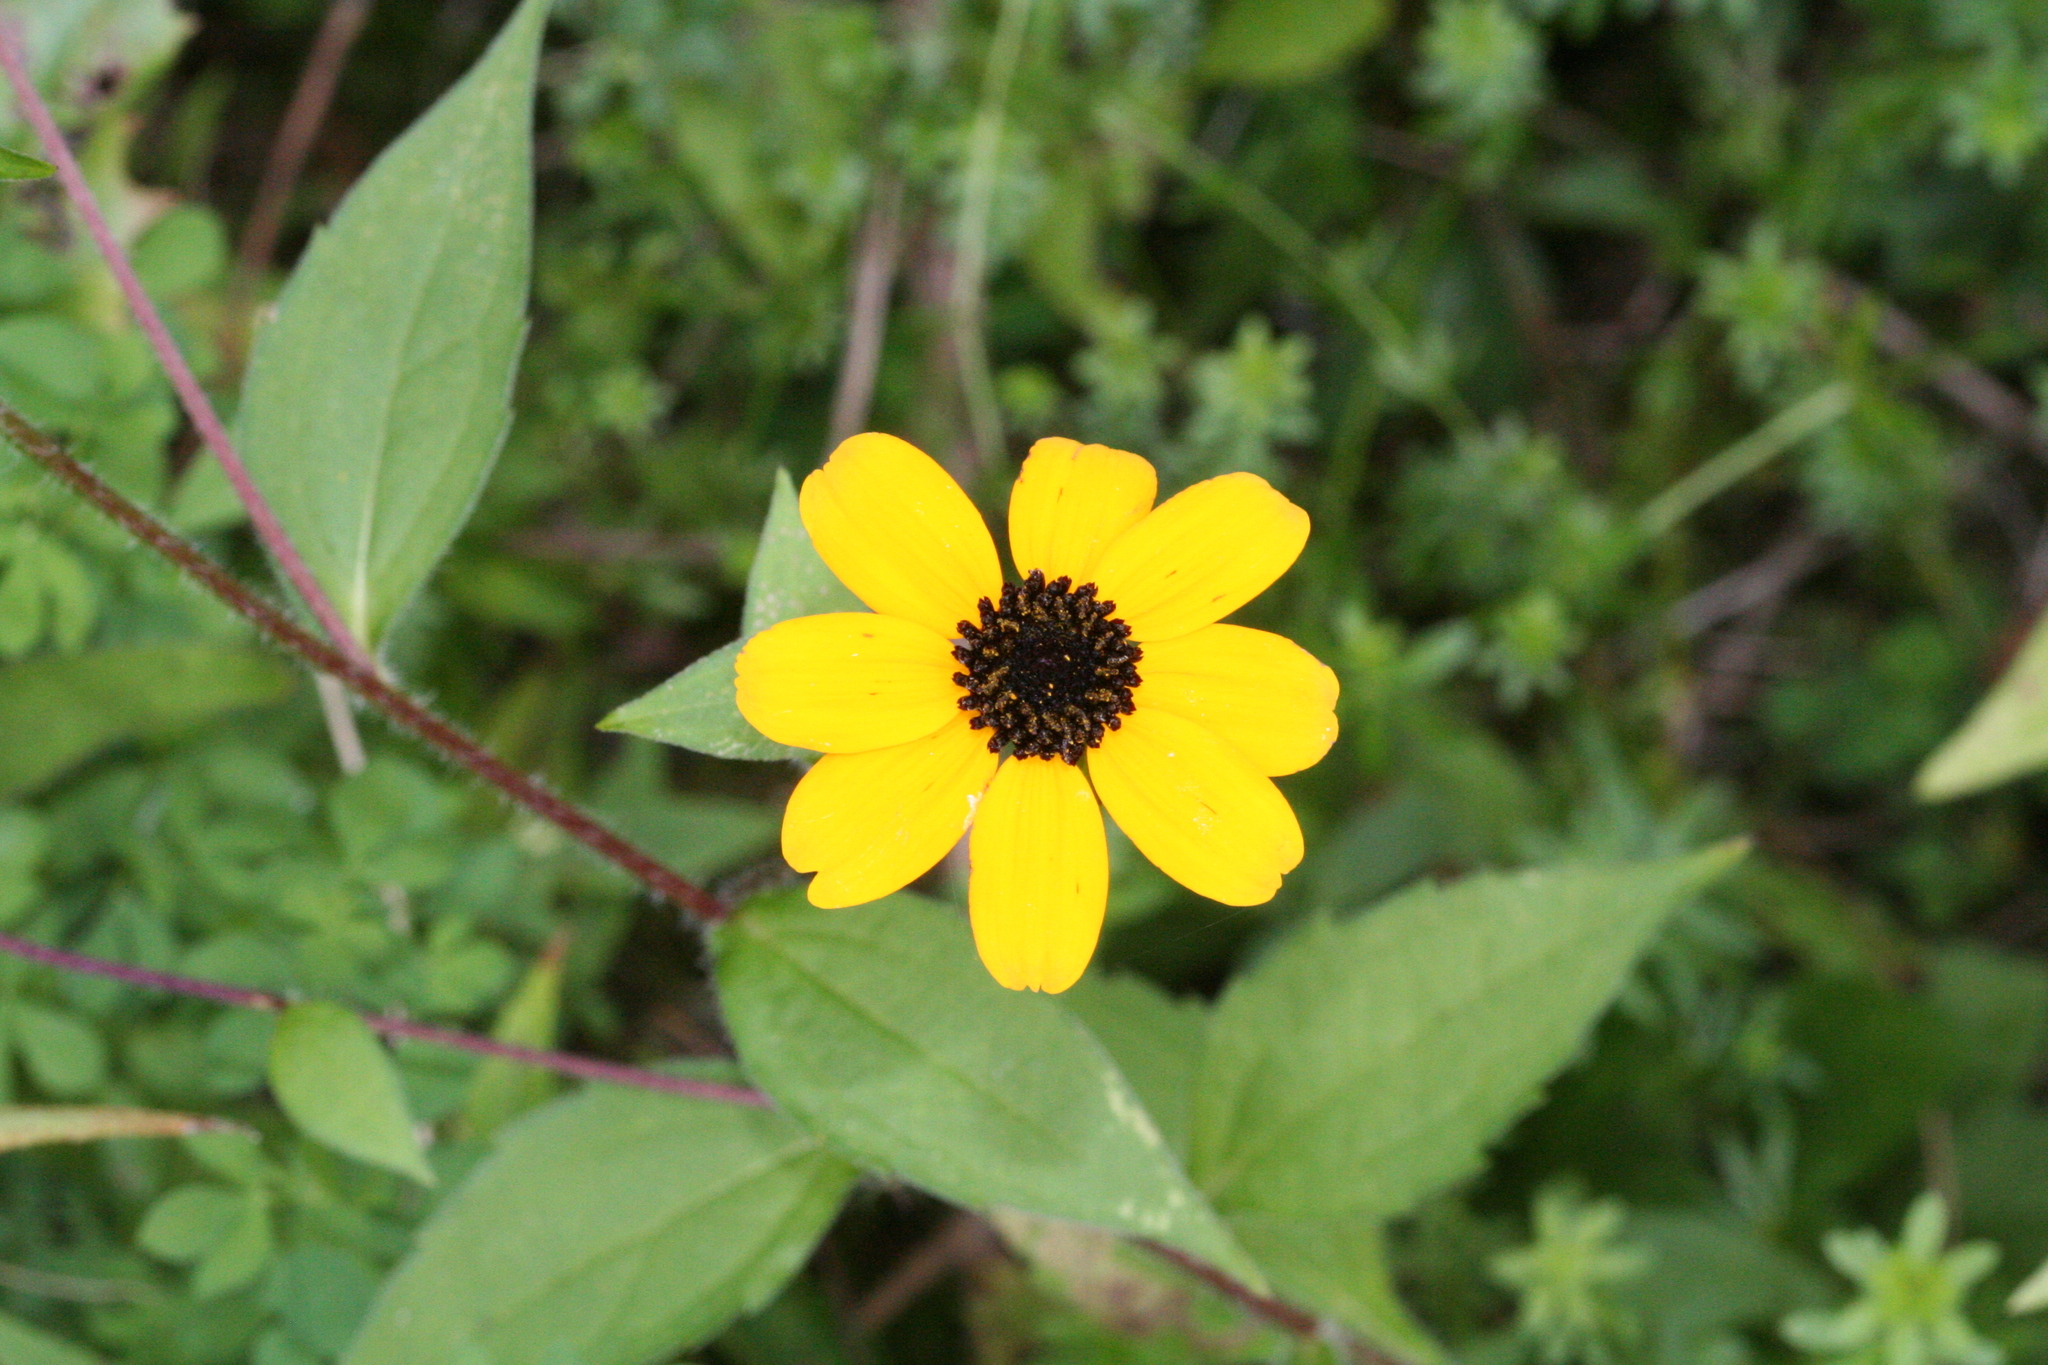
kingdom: Plantae
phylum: Tracheophyta
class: Magnoliopsida
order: Asterales
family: Asteraceae
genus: Rudbeckia
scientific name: Rudbeckia triloba
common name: Thin-leaved coneflower
